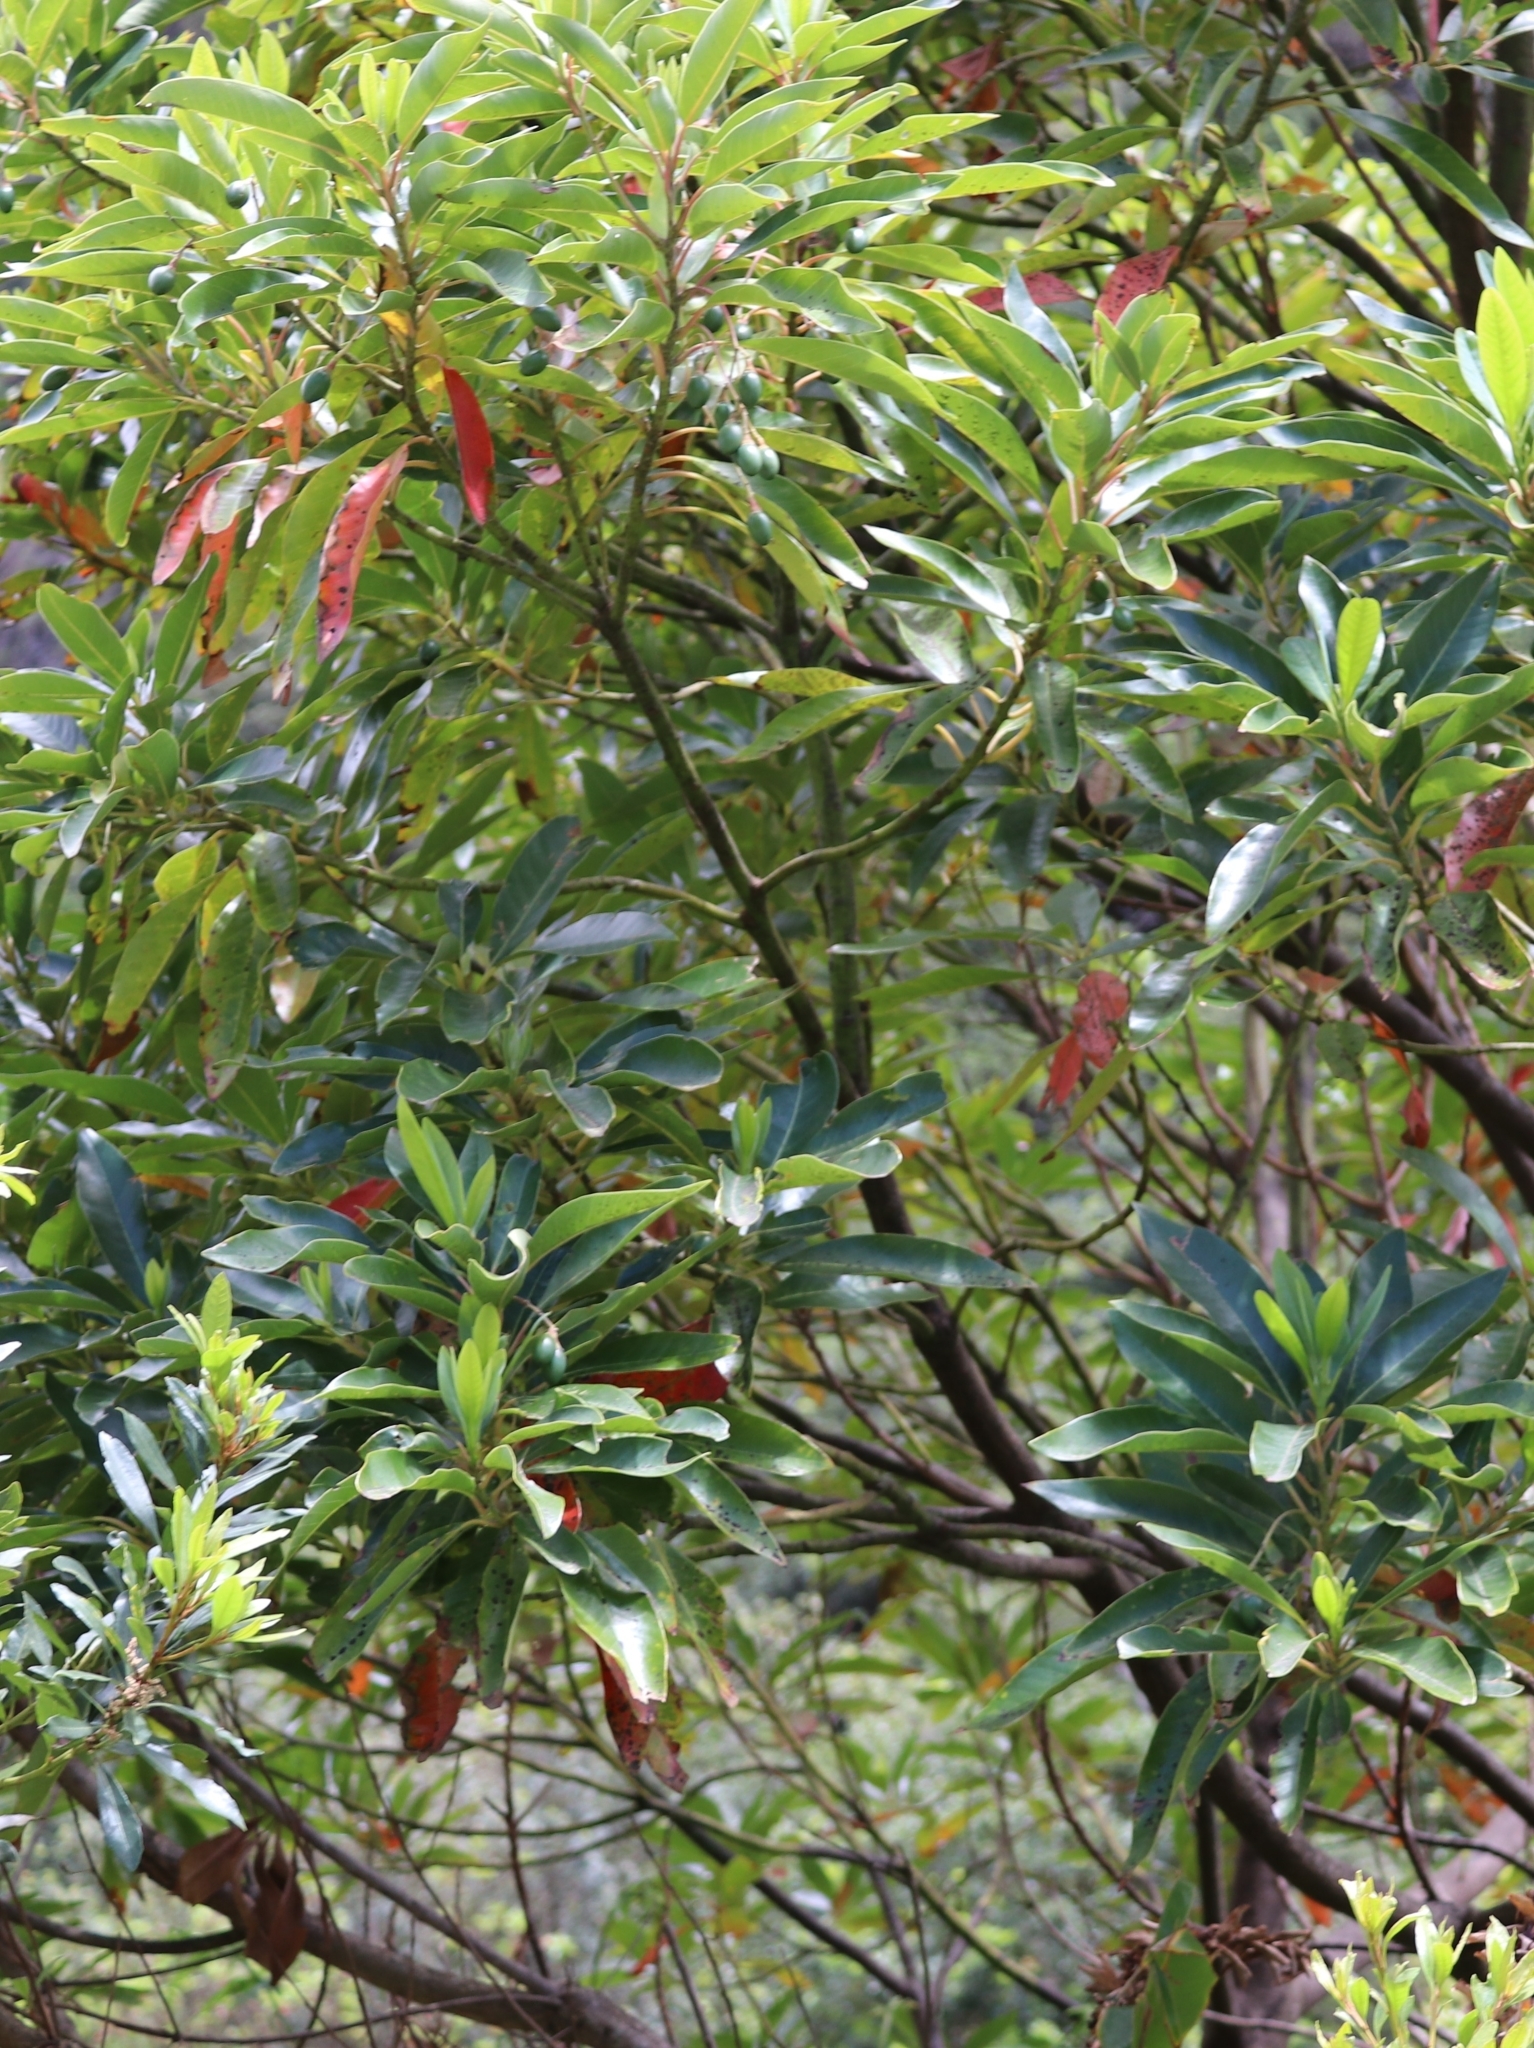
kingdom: Plantae
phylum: Tracheophyta
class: Magnoliopsida
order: Laurales
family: Lauraceae
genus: Persea
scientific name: Persea indica
